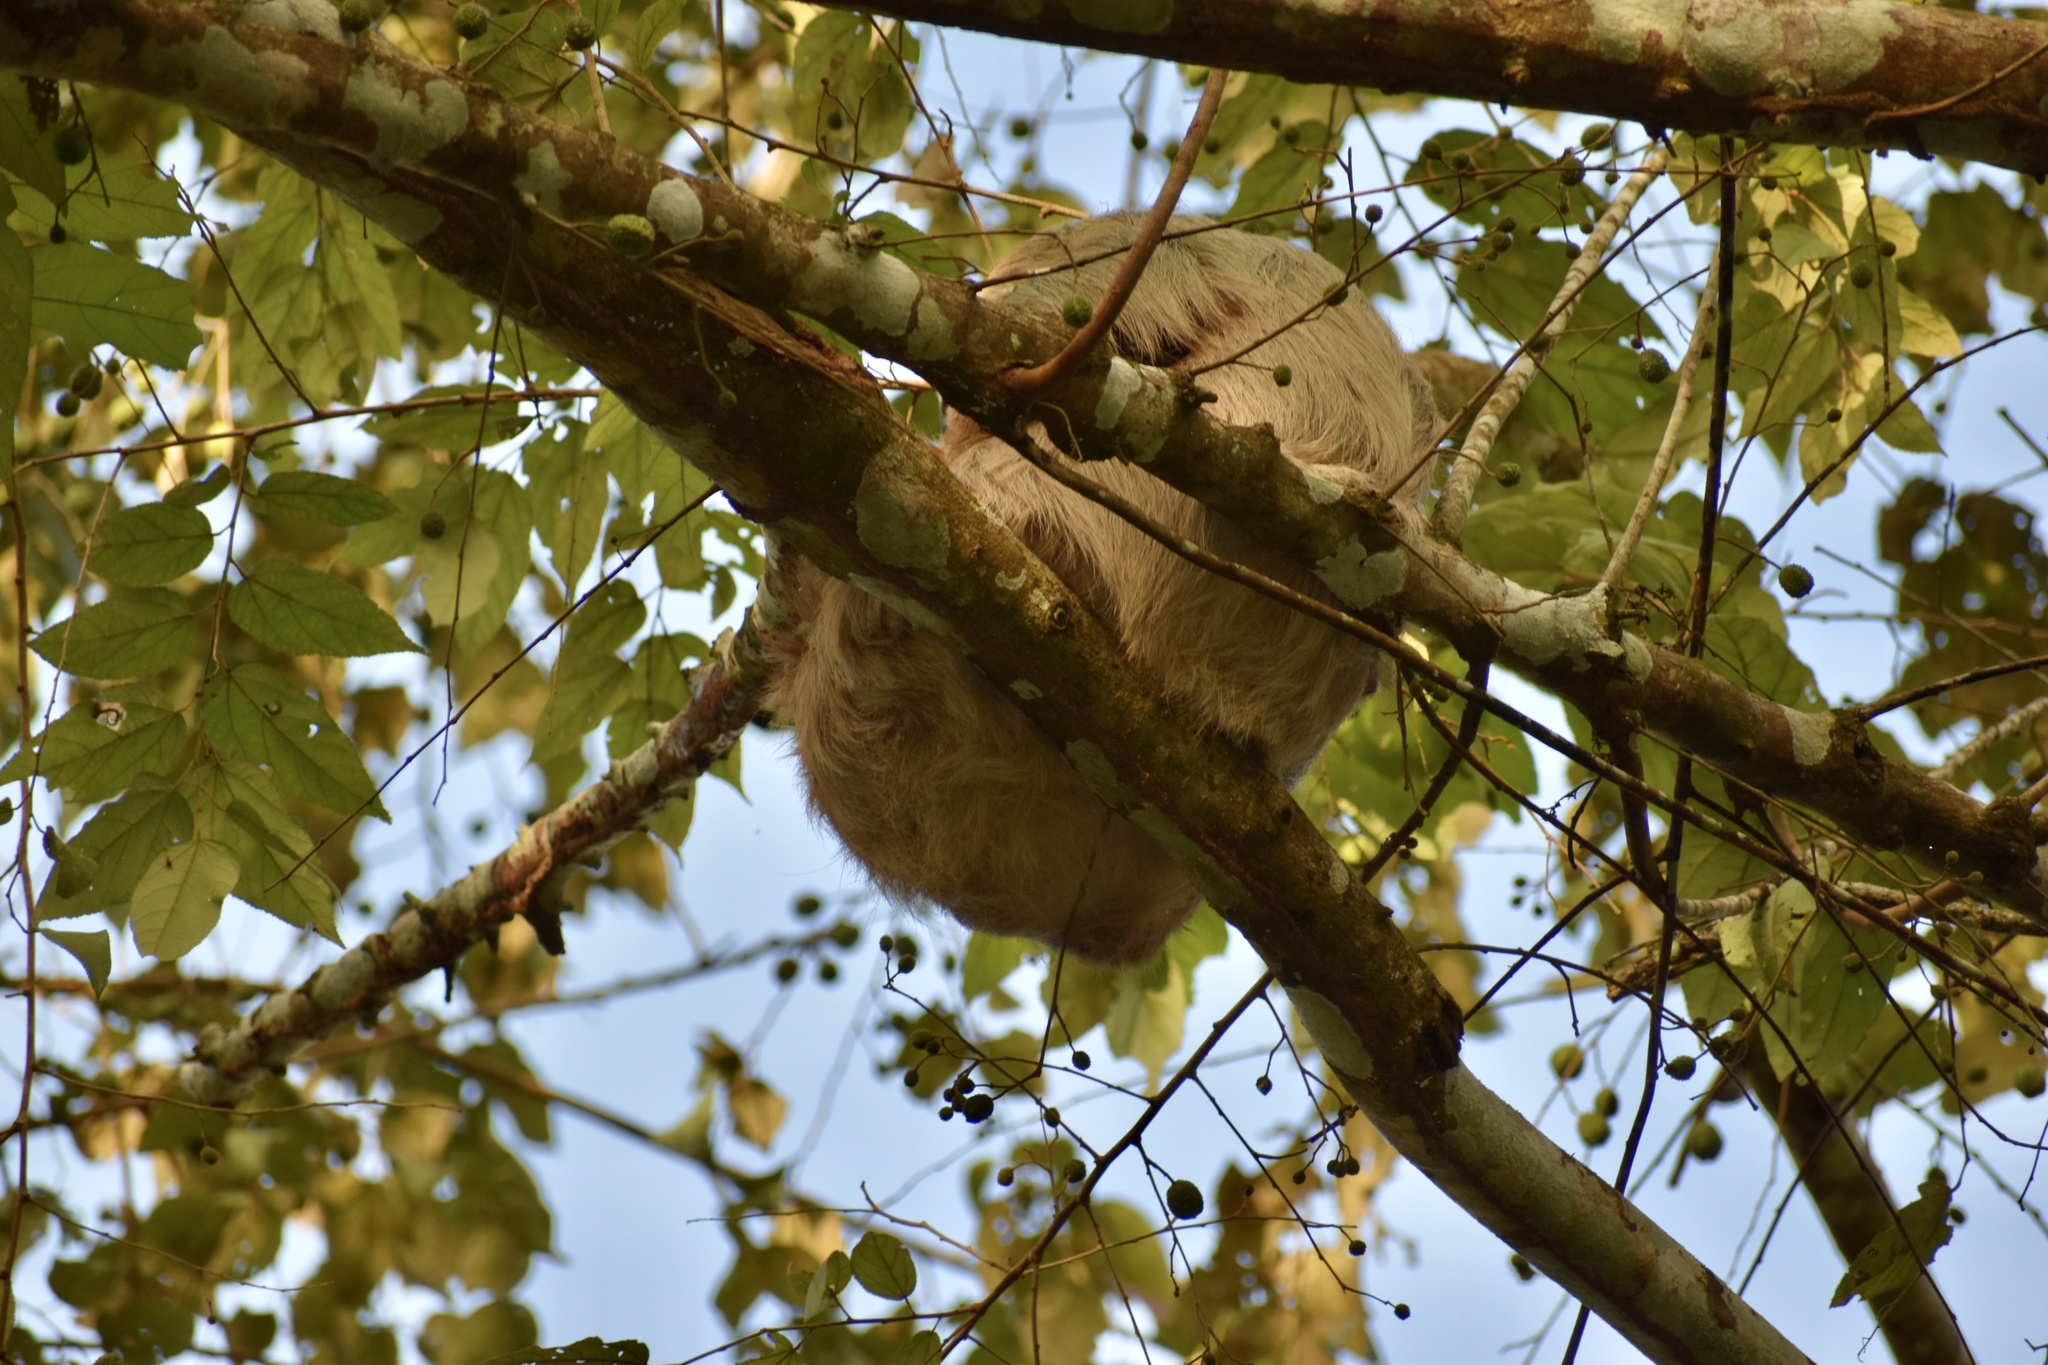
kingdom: Animalia
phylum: Chordata
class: Mammalia
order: Pilosa
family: Megalonychidae
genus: Choloepus
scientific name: Choloepus hoffmanni
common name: Hoffmann's two-toed sloth
